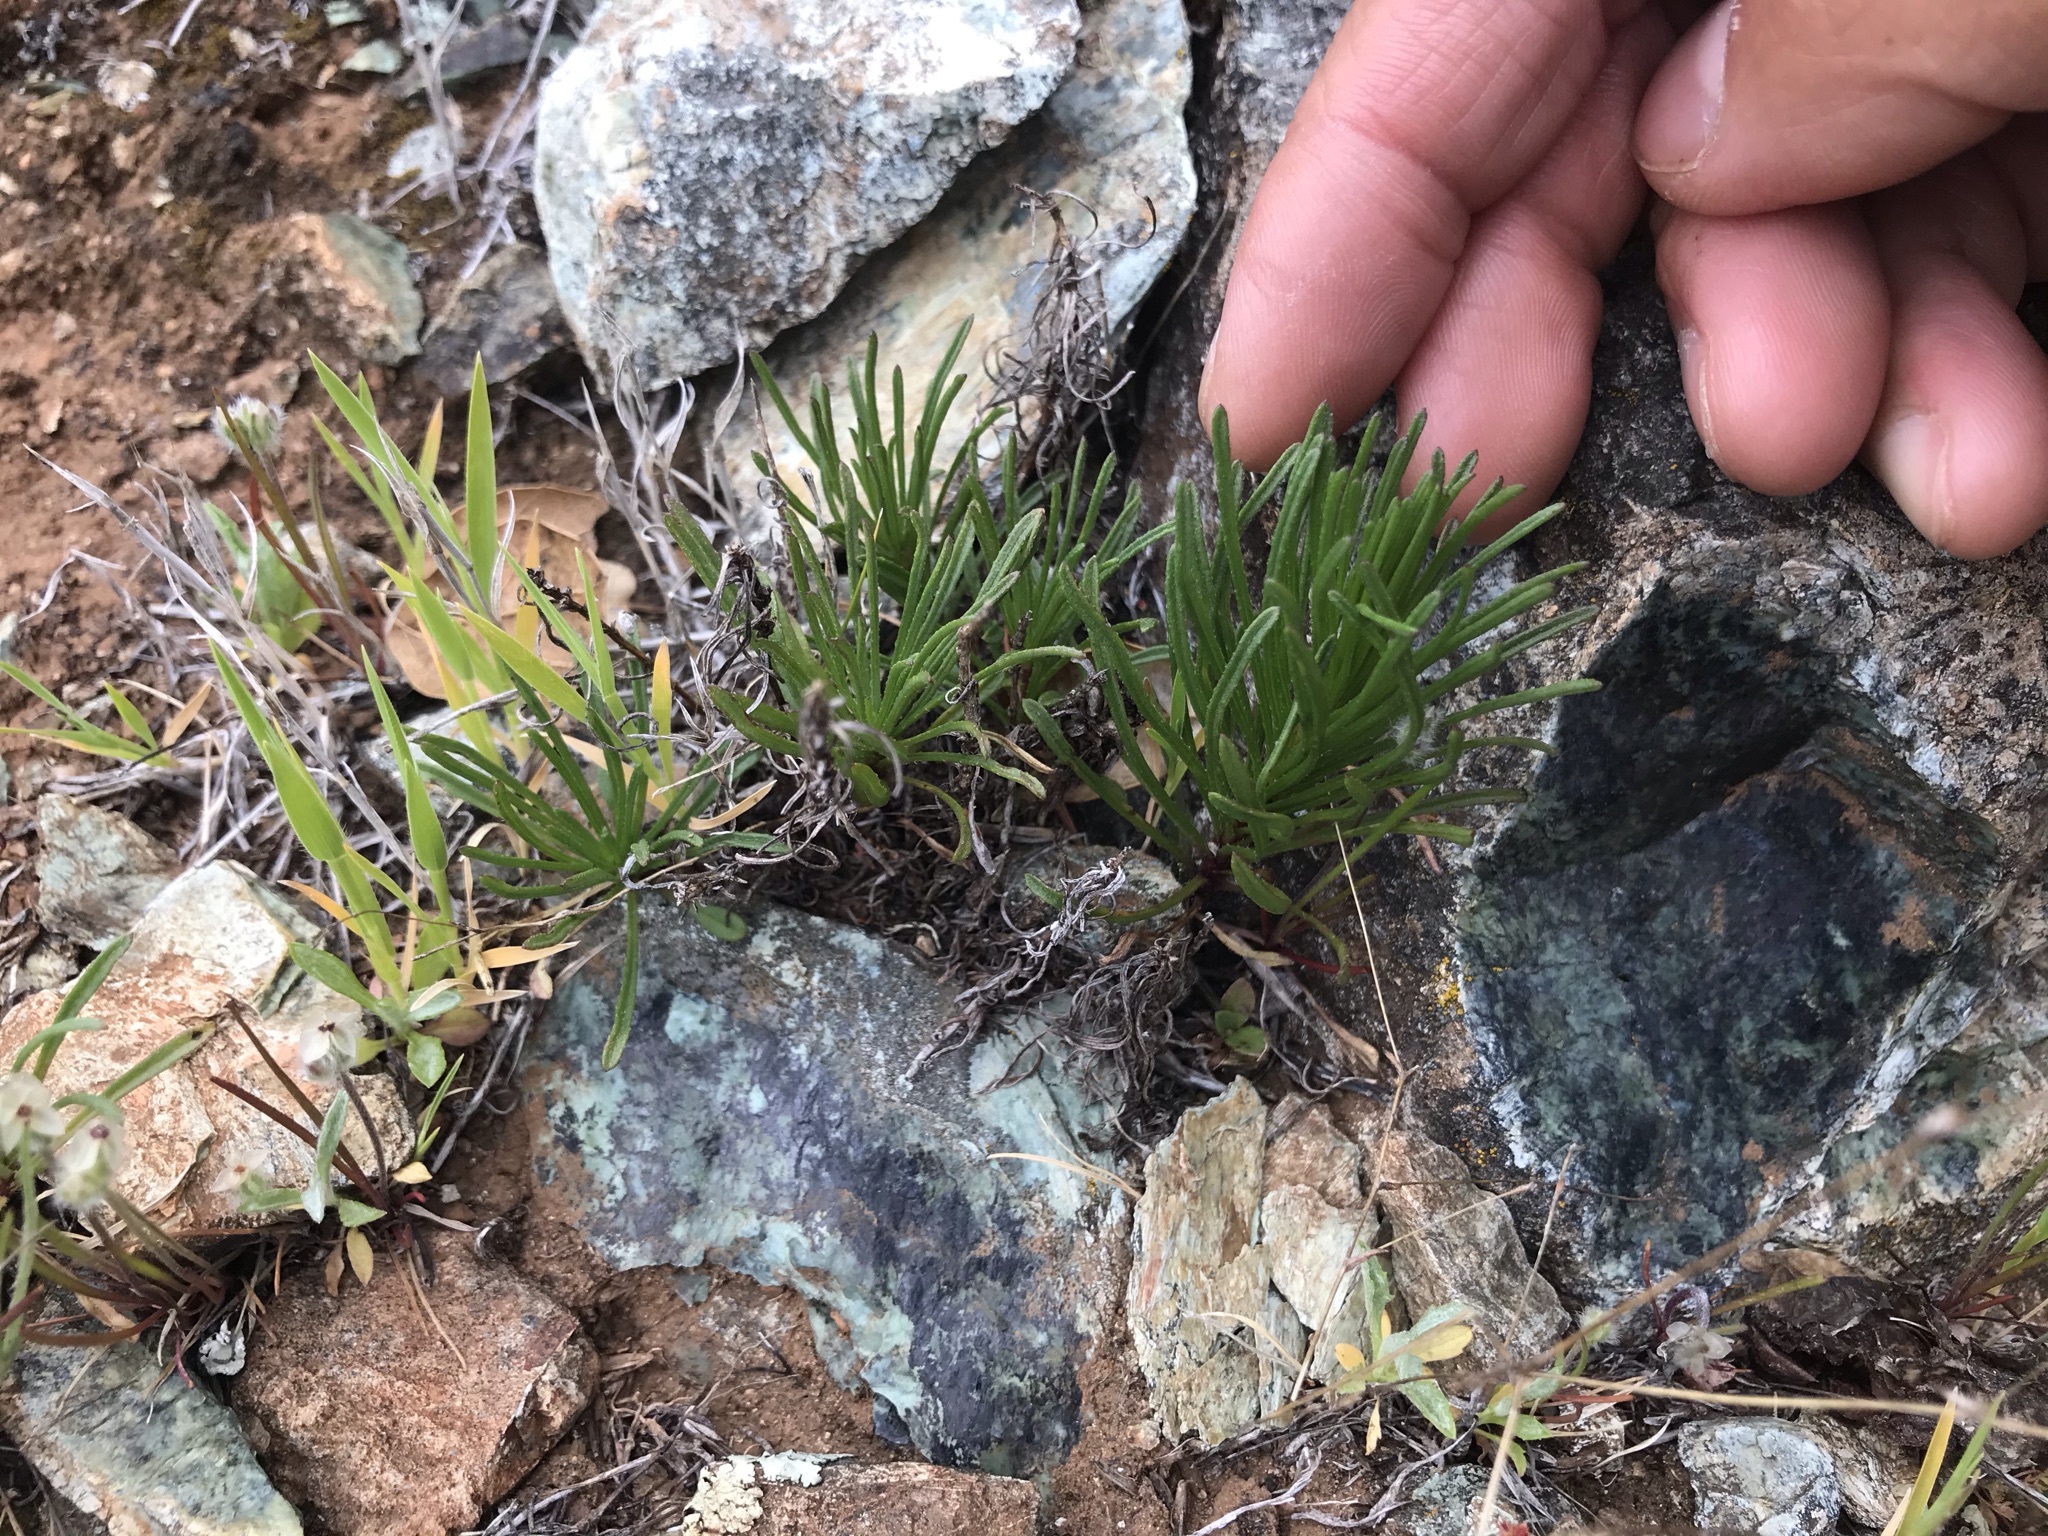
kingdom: Plantae
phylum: Tracheophyta
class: Magnoliopsida
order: Asterales
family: Asteraceae
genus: Erigeron
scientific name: Erigeron greenei
